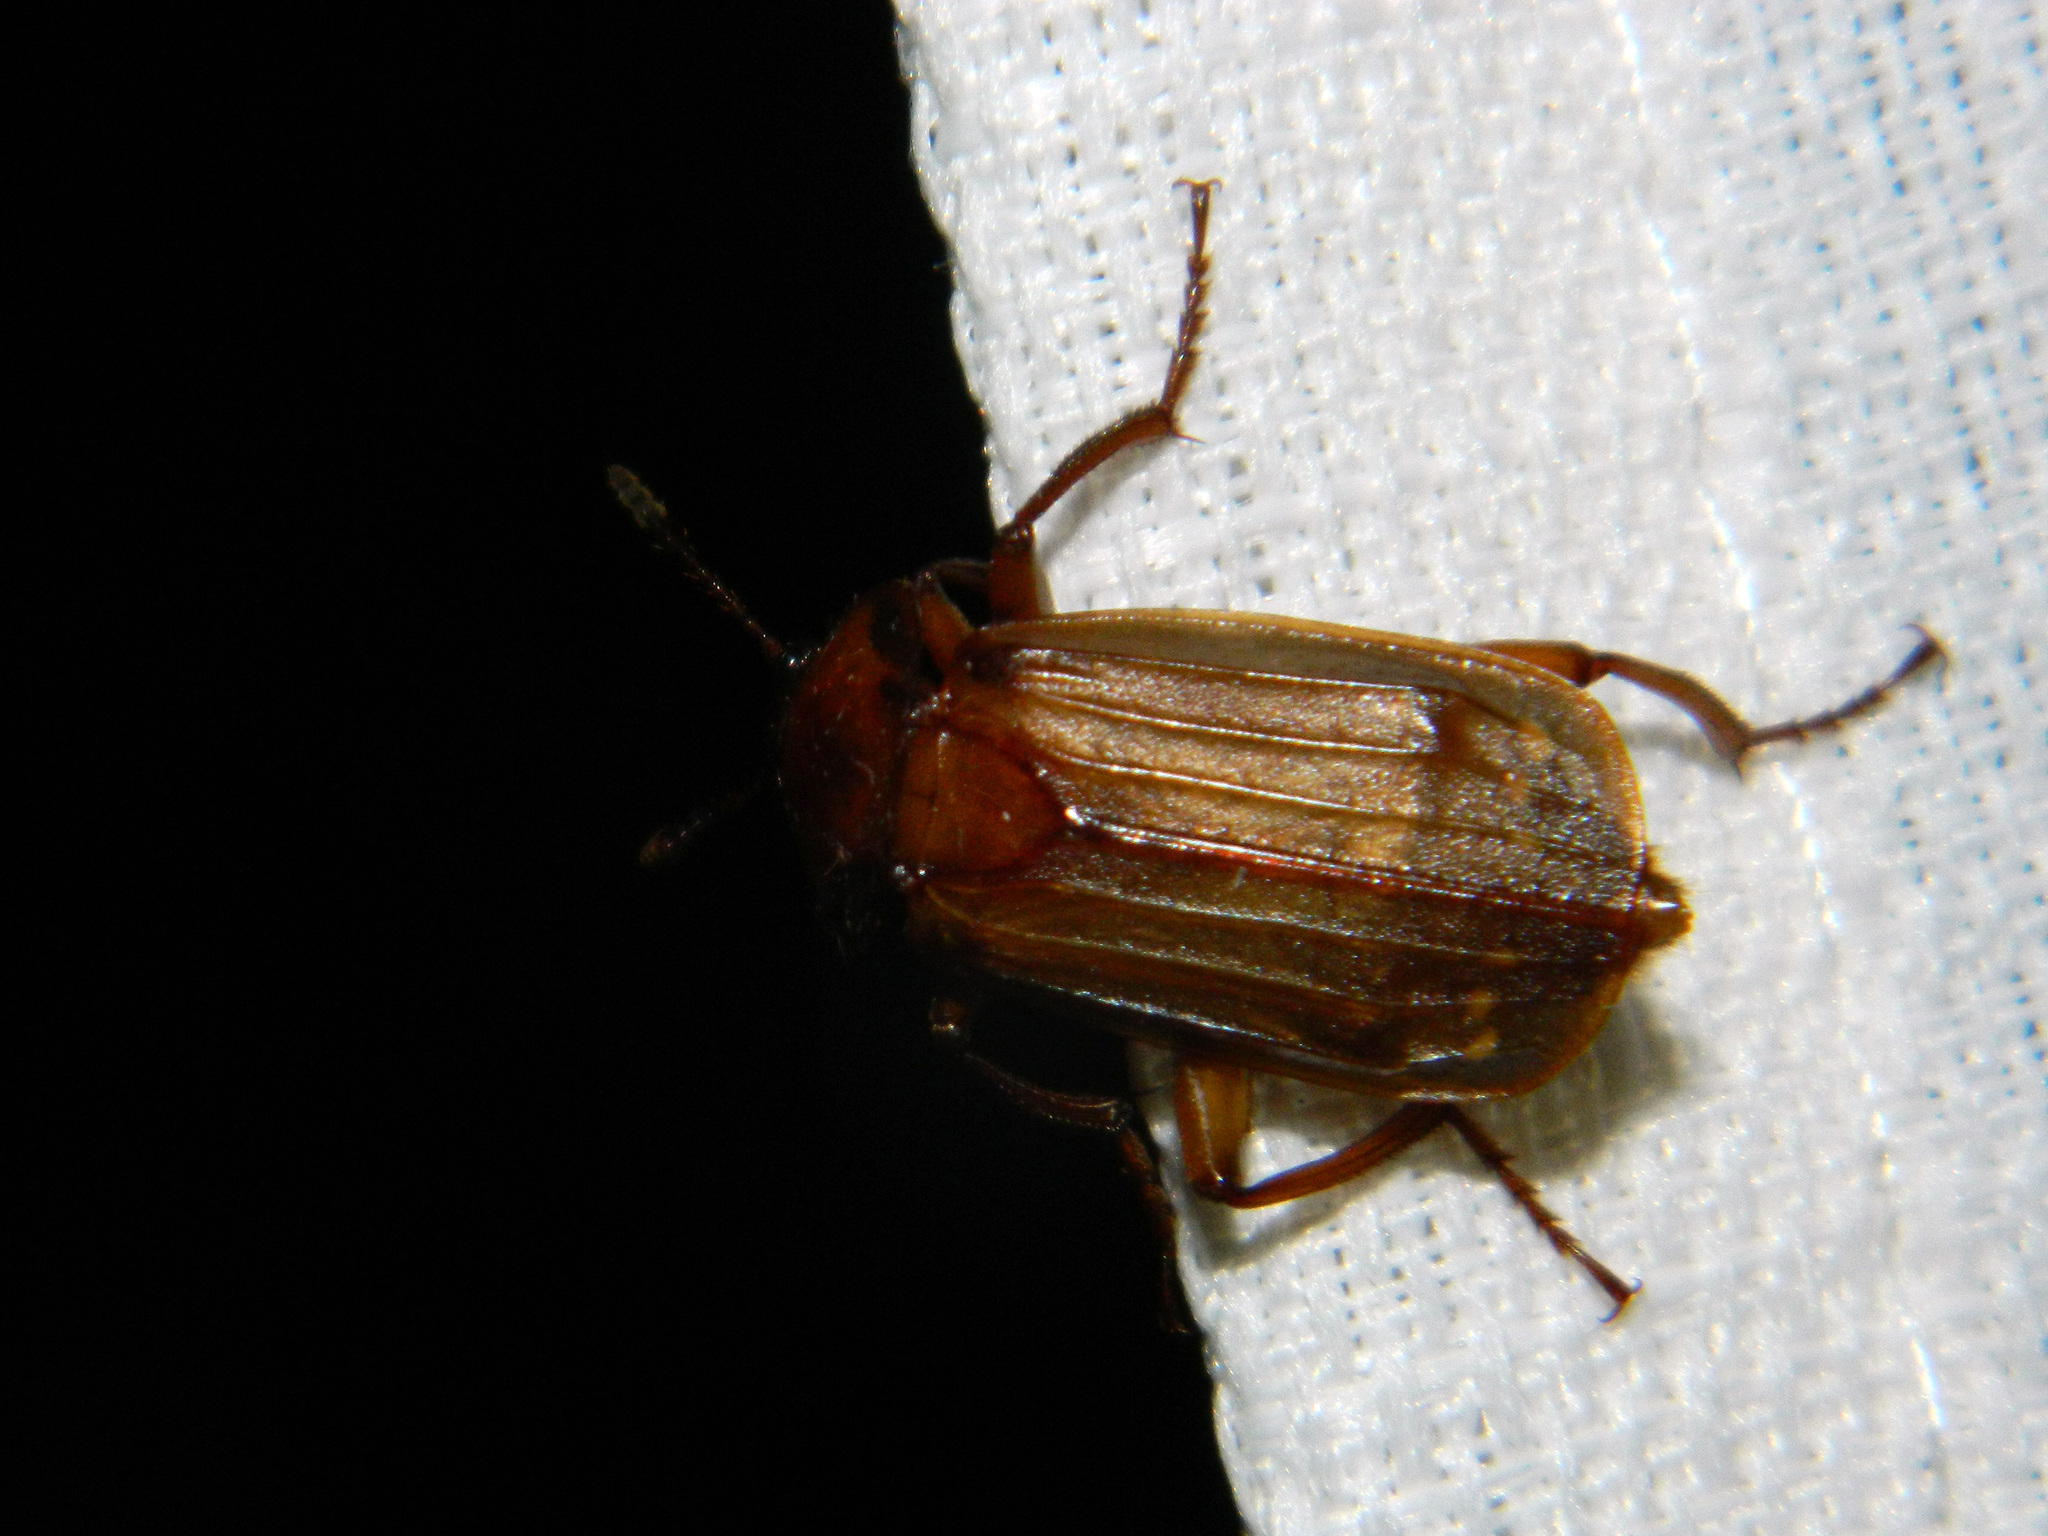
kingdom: Animalia
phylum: Arthropoda
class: Insecta
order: Coleoptera
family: Staphylinidae
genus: Necrodes
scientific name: Necrodes surinamensis
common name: Red-lined carrion beetle
